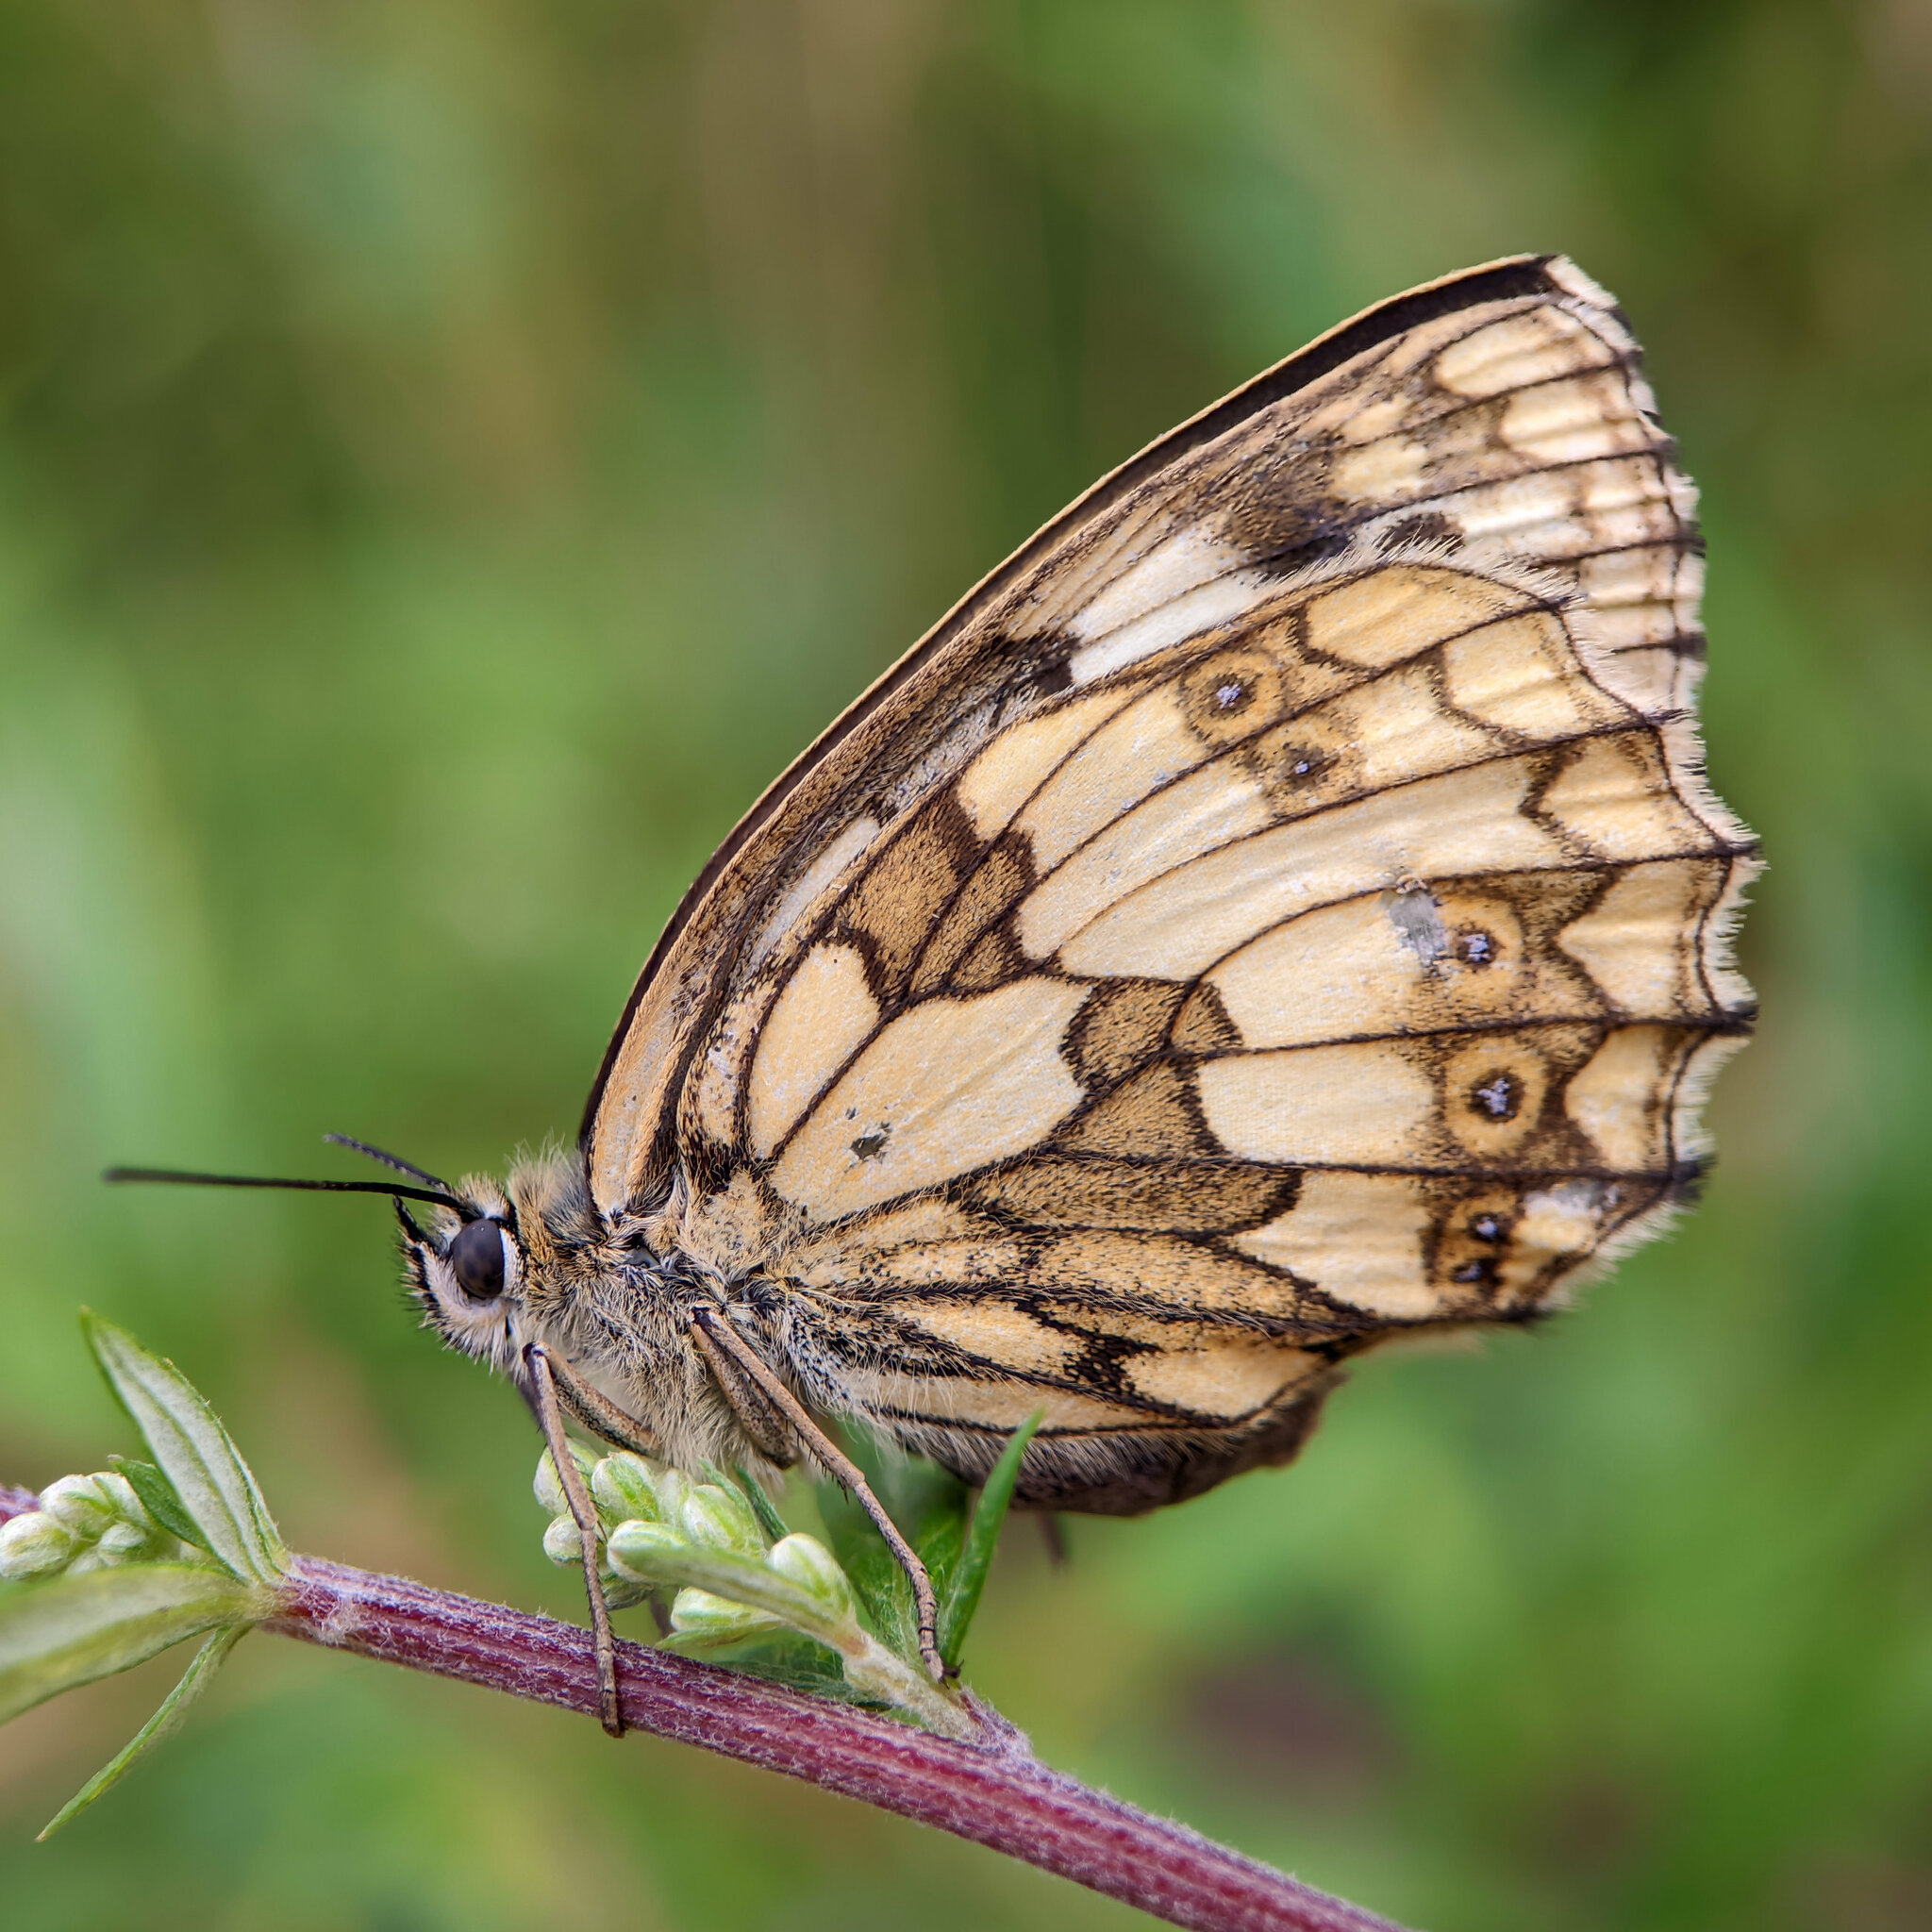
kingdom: Animalia
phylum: Arthropoda
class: Insecta
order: Lepidoptera
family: Nymphalidae
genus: Melanargia
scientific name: Melanargia galathea
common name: Marbled white
